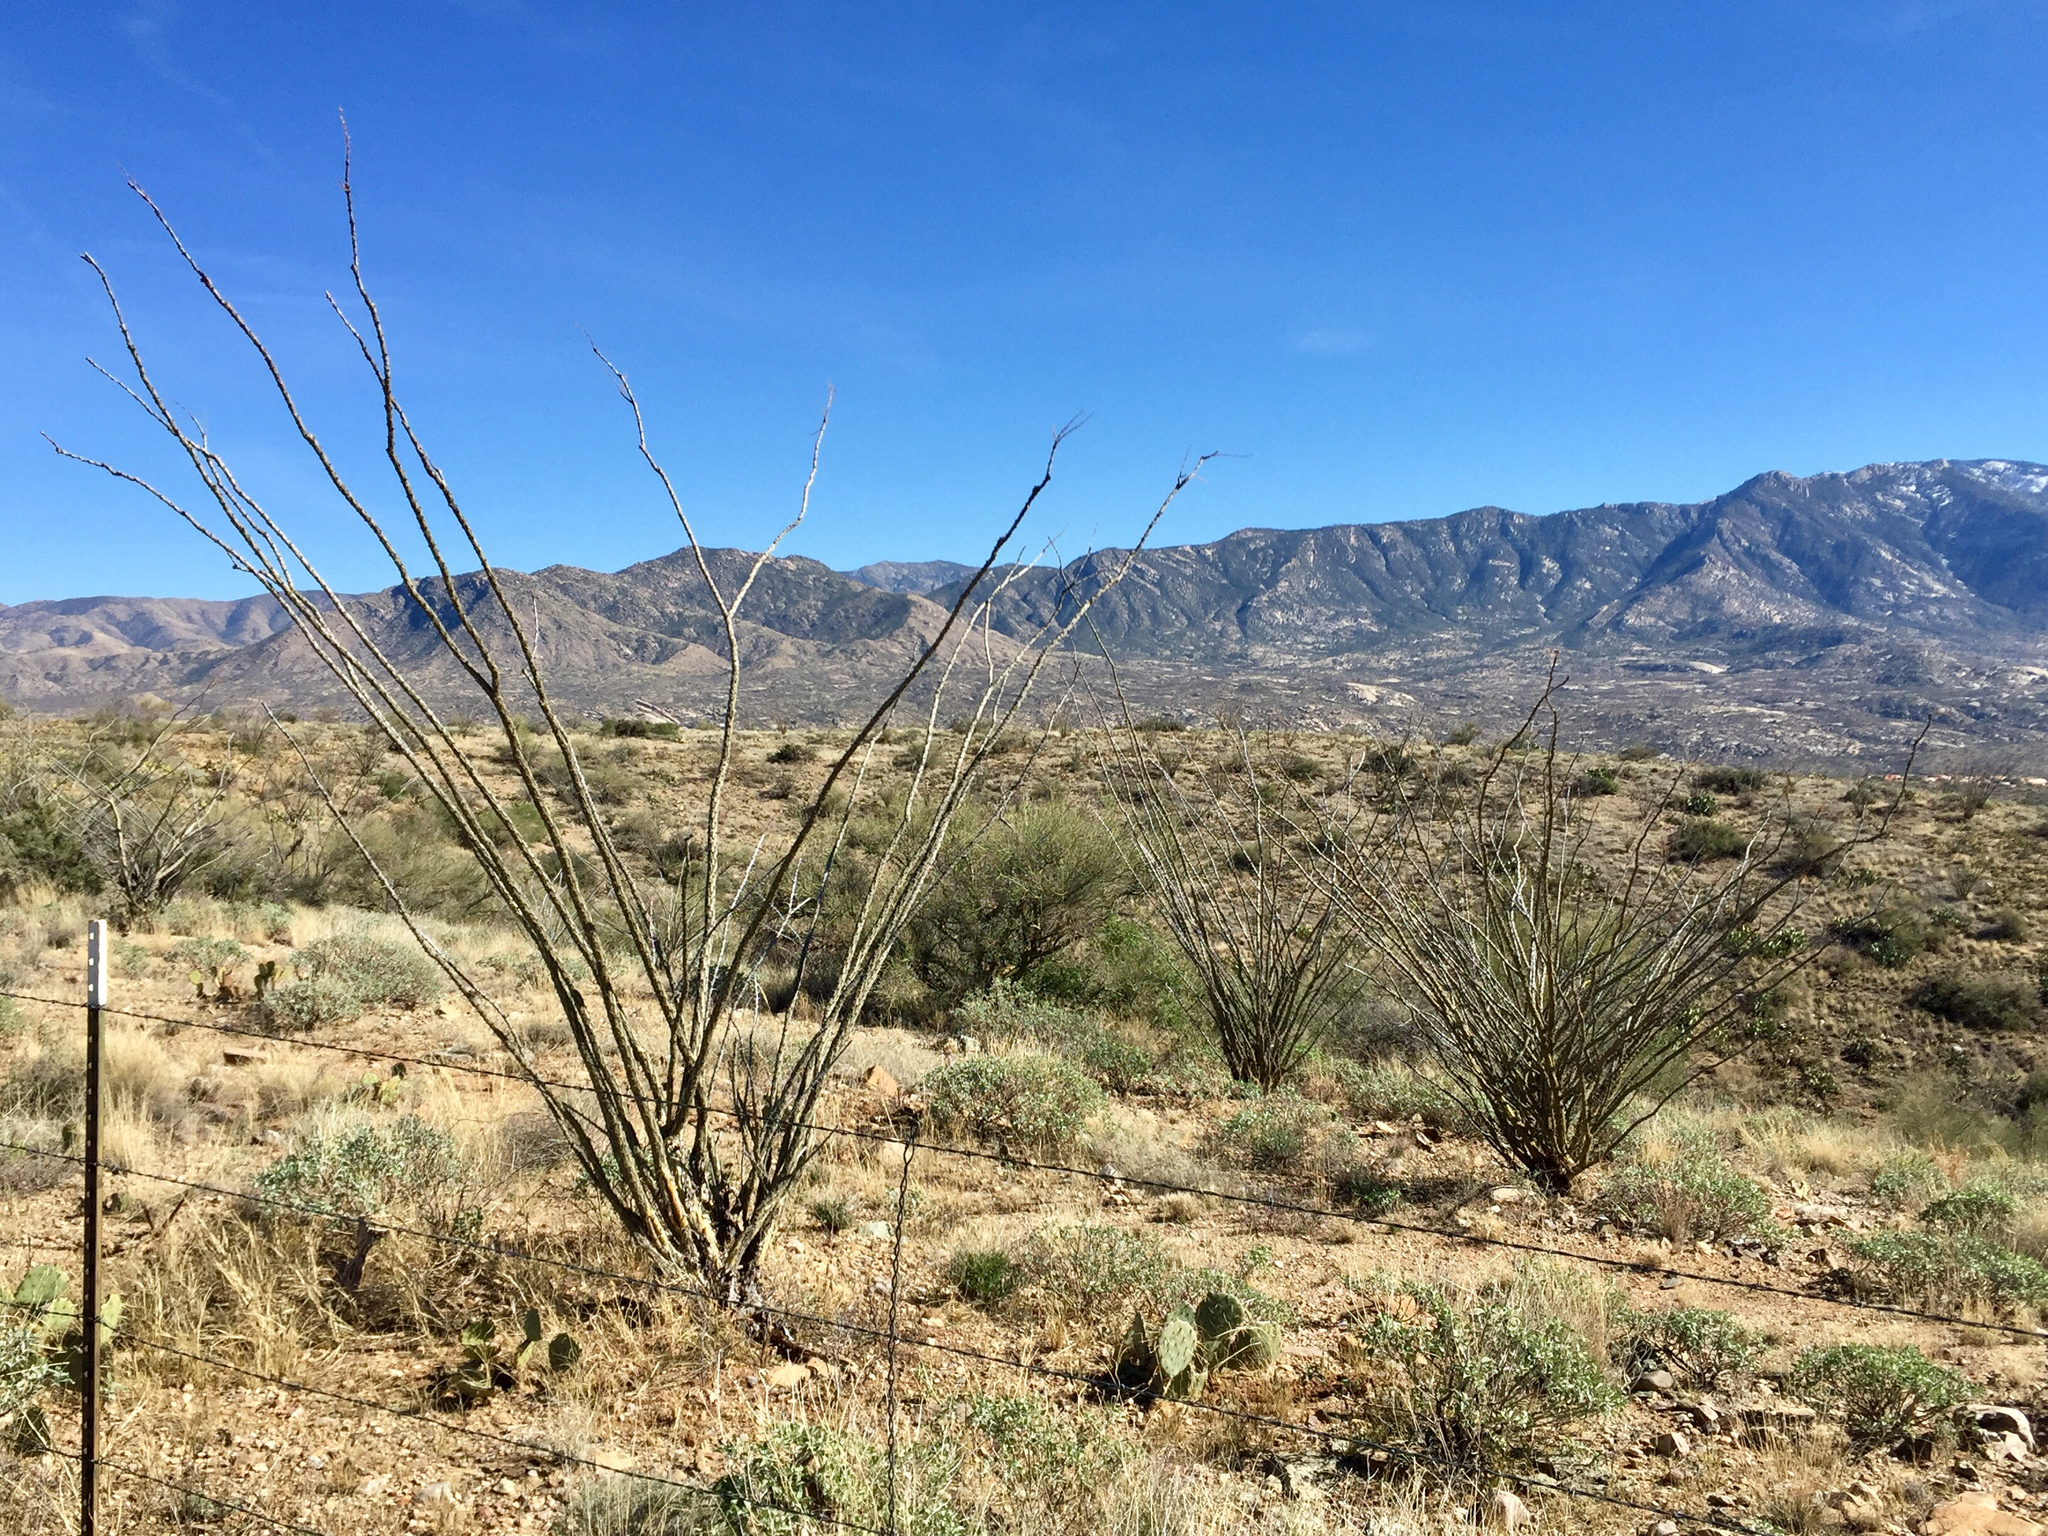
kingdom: Plantae
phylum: Tracheophyta
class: Magnoliopsida
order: Ericales
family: Fouquieriaceae
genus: Fouquieria
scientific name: Fouquieria splendens
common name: Vine-cactus
